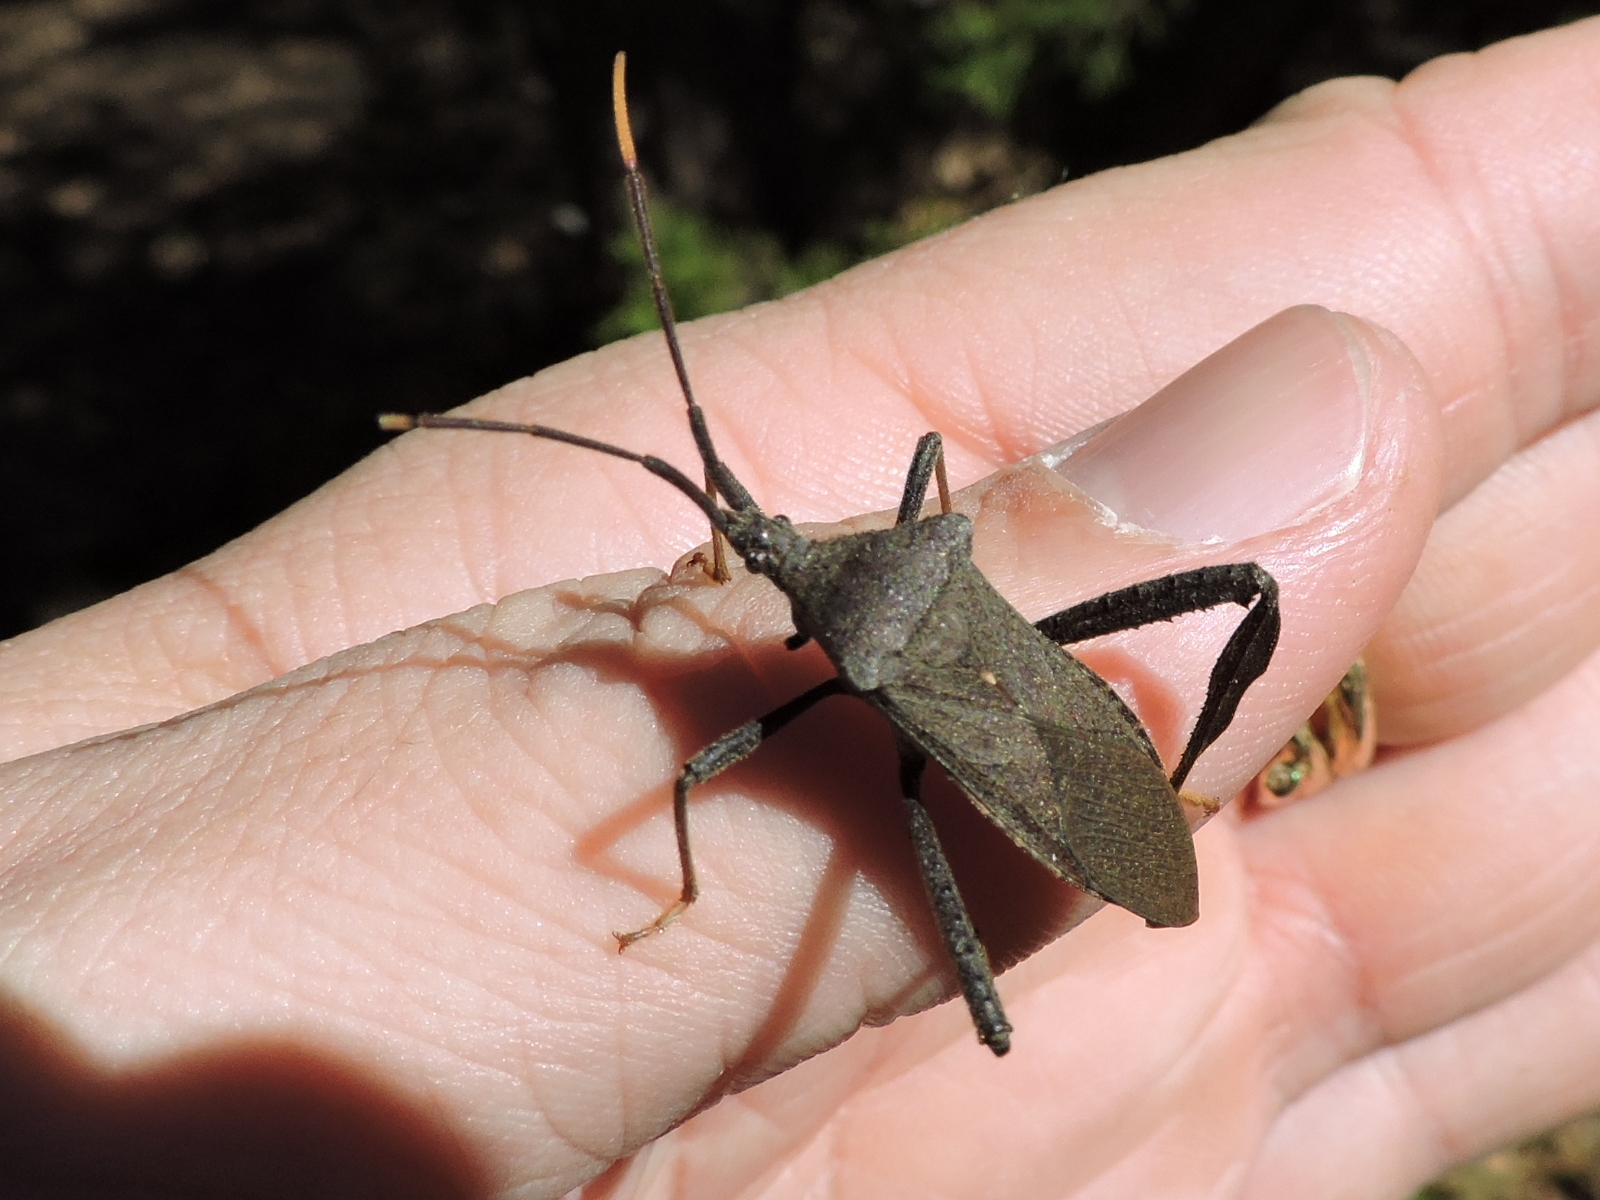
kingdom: Animalia
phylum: Arthropoda
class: Insecta
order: Hemiptera
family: Coreidae
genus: Acanthocephala
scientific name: Acanthocephala terminalis
